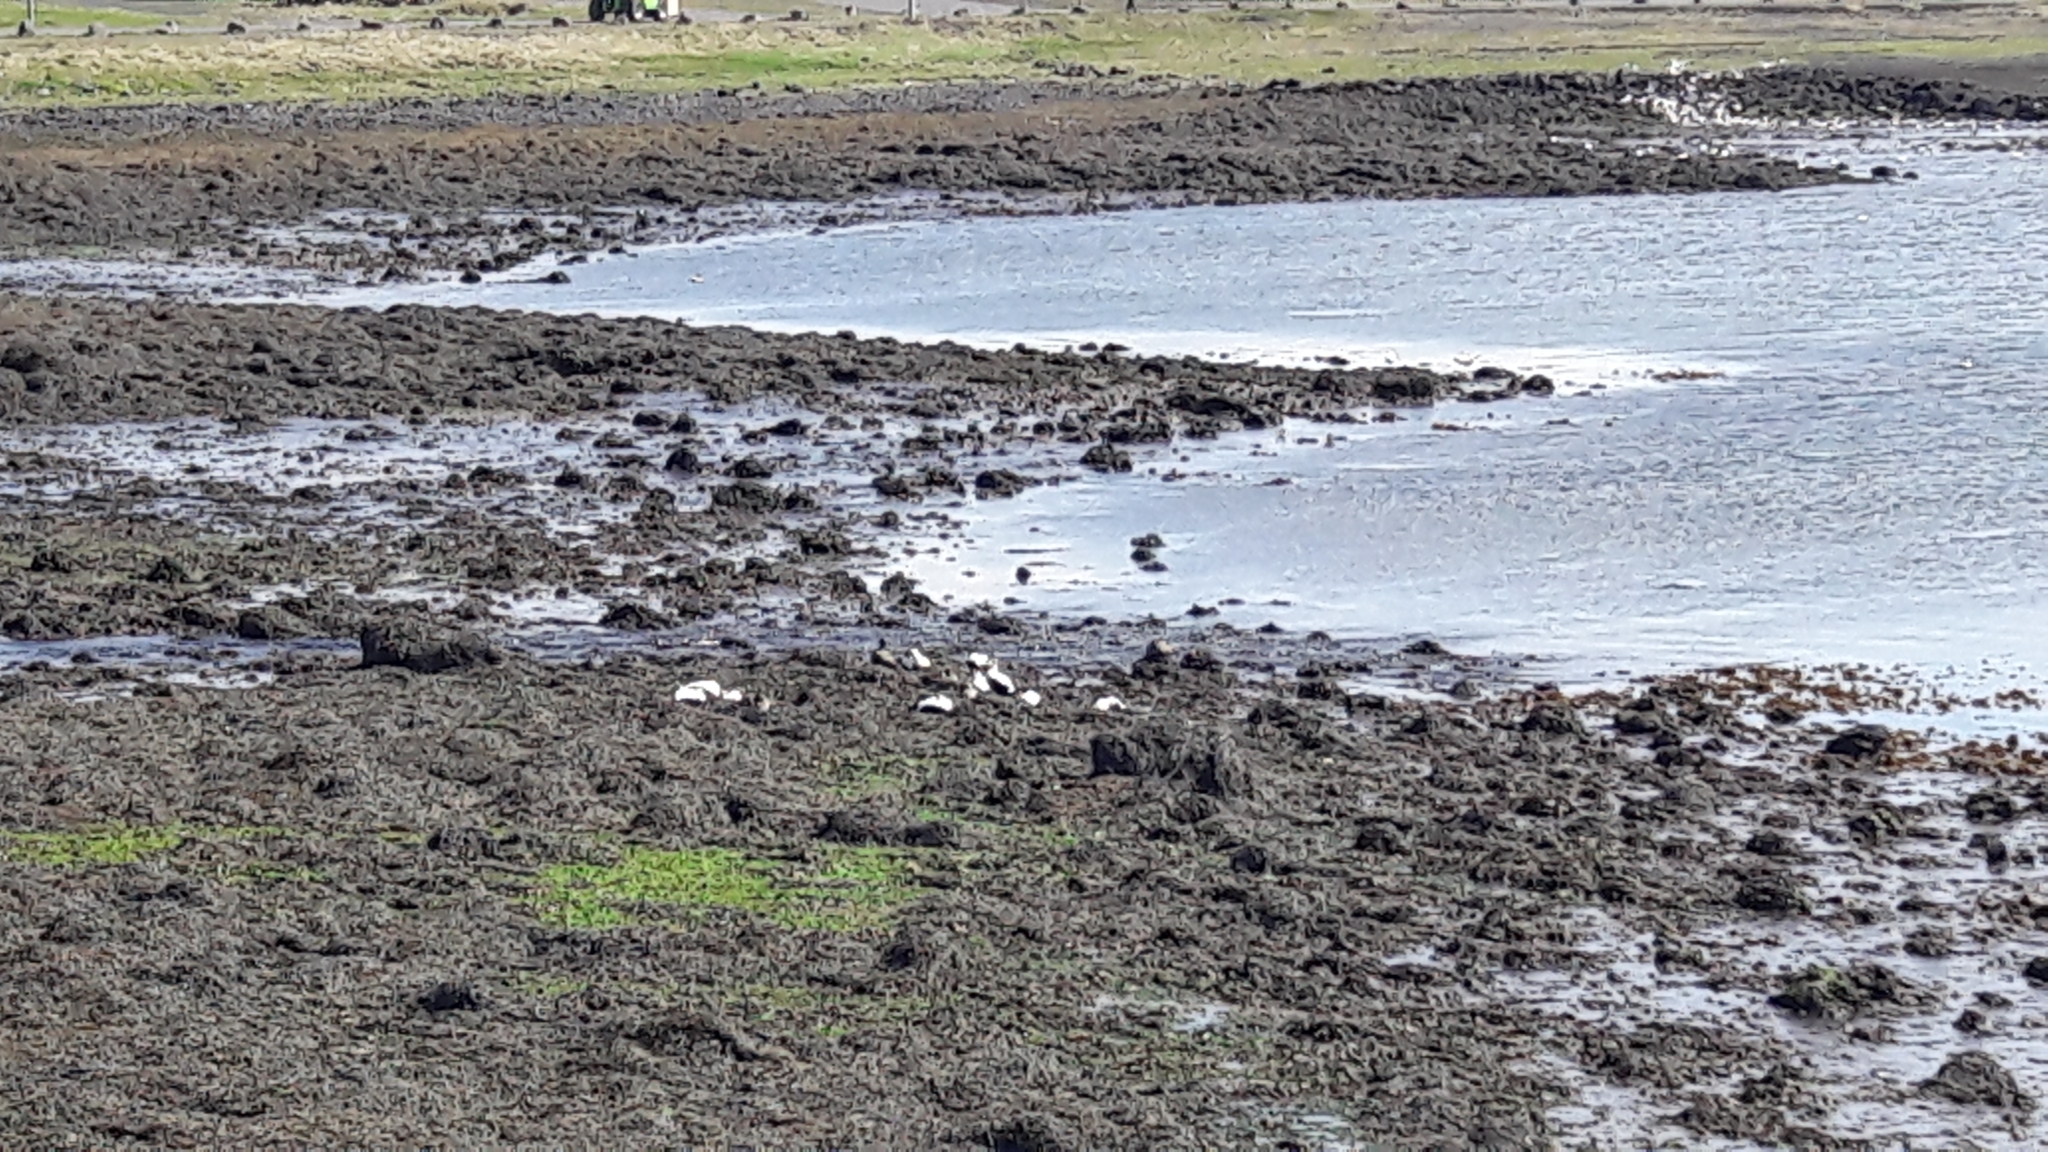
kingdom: Animalia
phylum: Chordata
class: Aves
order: Anseriformes
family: Anatidae
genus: Somateria
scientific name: Somateria mollissima
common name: Common eider
